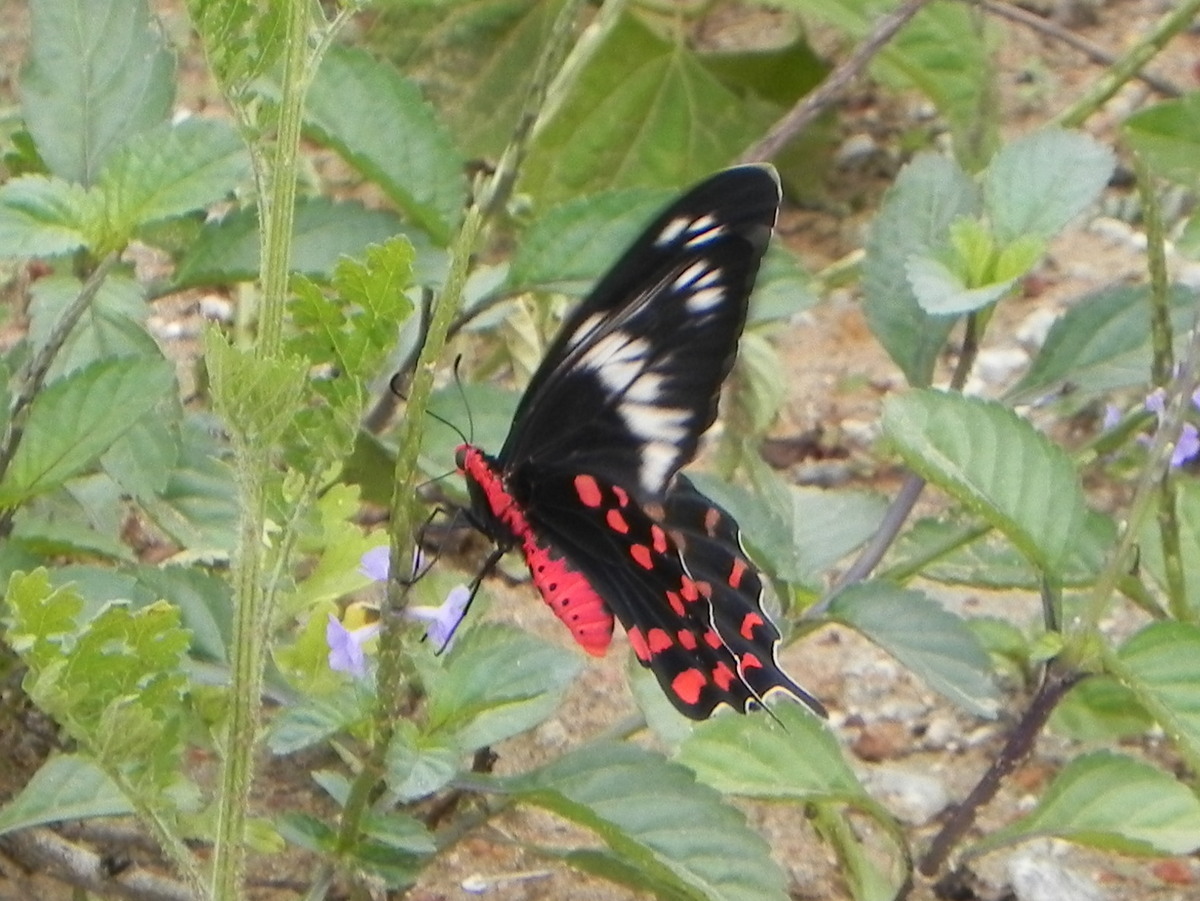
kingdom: Animalia
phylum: Arthropoda
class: Insecta
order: Lepidoptera
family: Papilionidae
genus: Pachliopta
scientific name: Pachliopta hector
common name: Crimson rose
